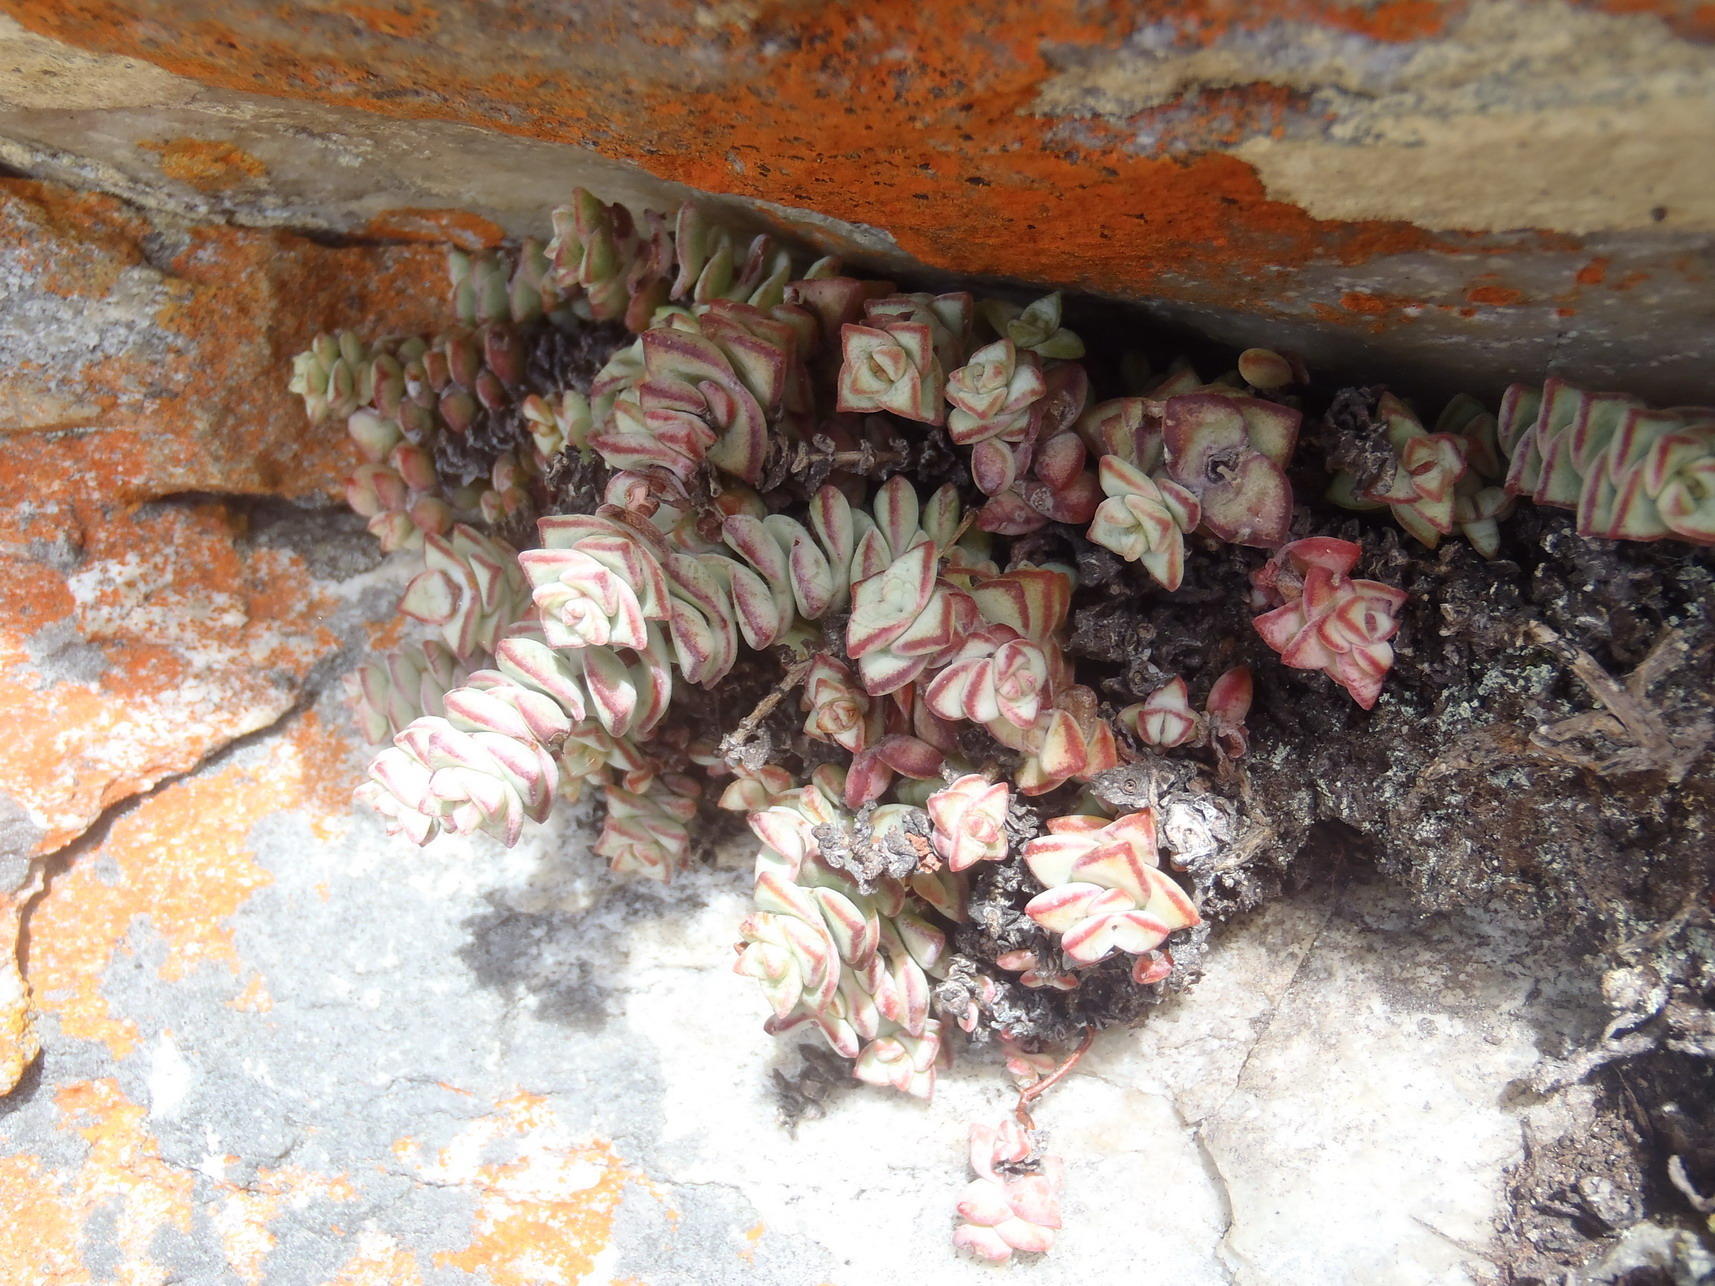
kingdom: Plantae
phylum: Tracheophyta
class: Magnoliopsida
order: Saxifragales
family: Crassulaceae
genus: Crassula
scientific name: Crassula rupestris
